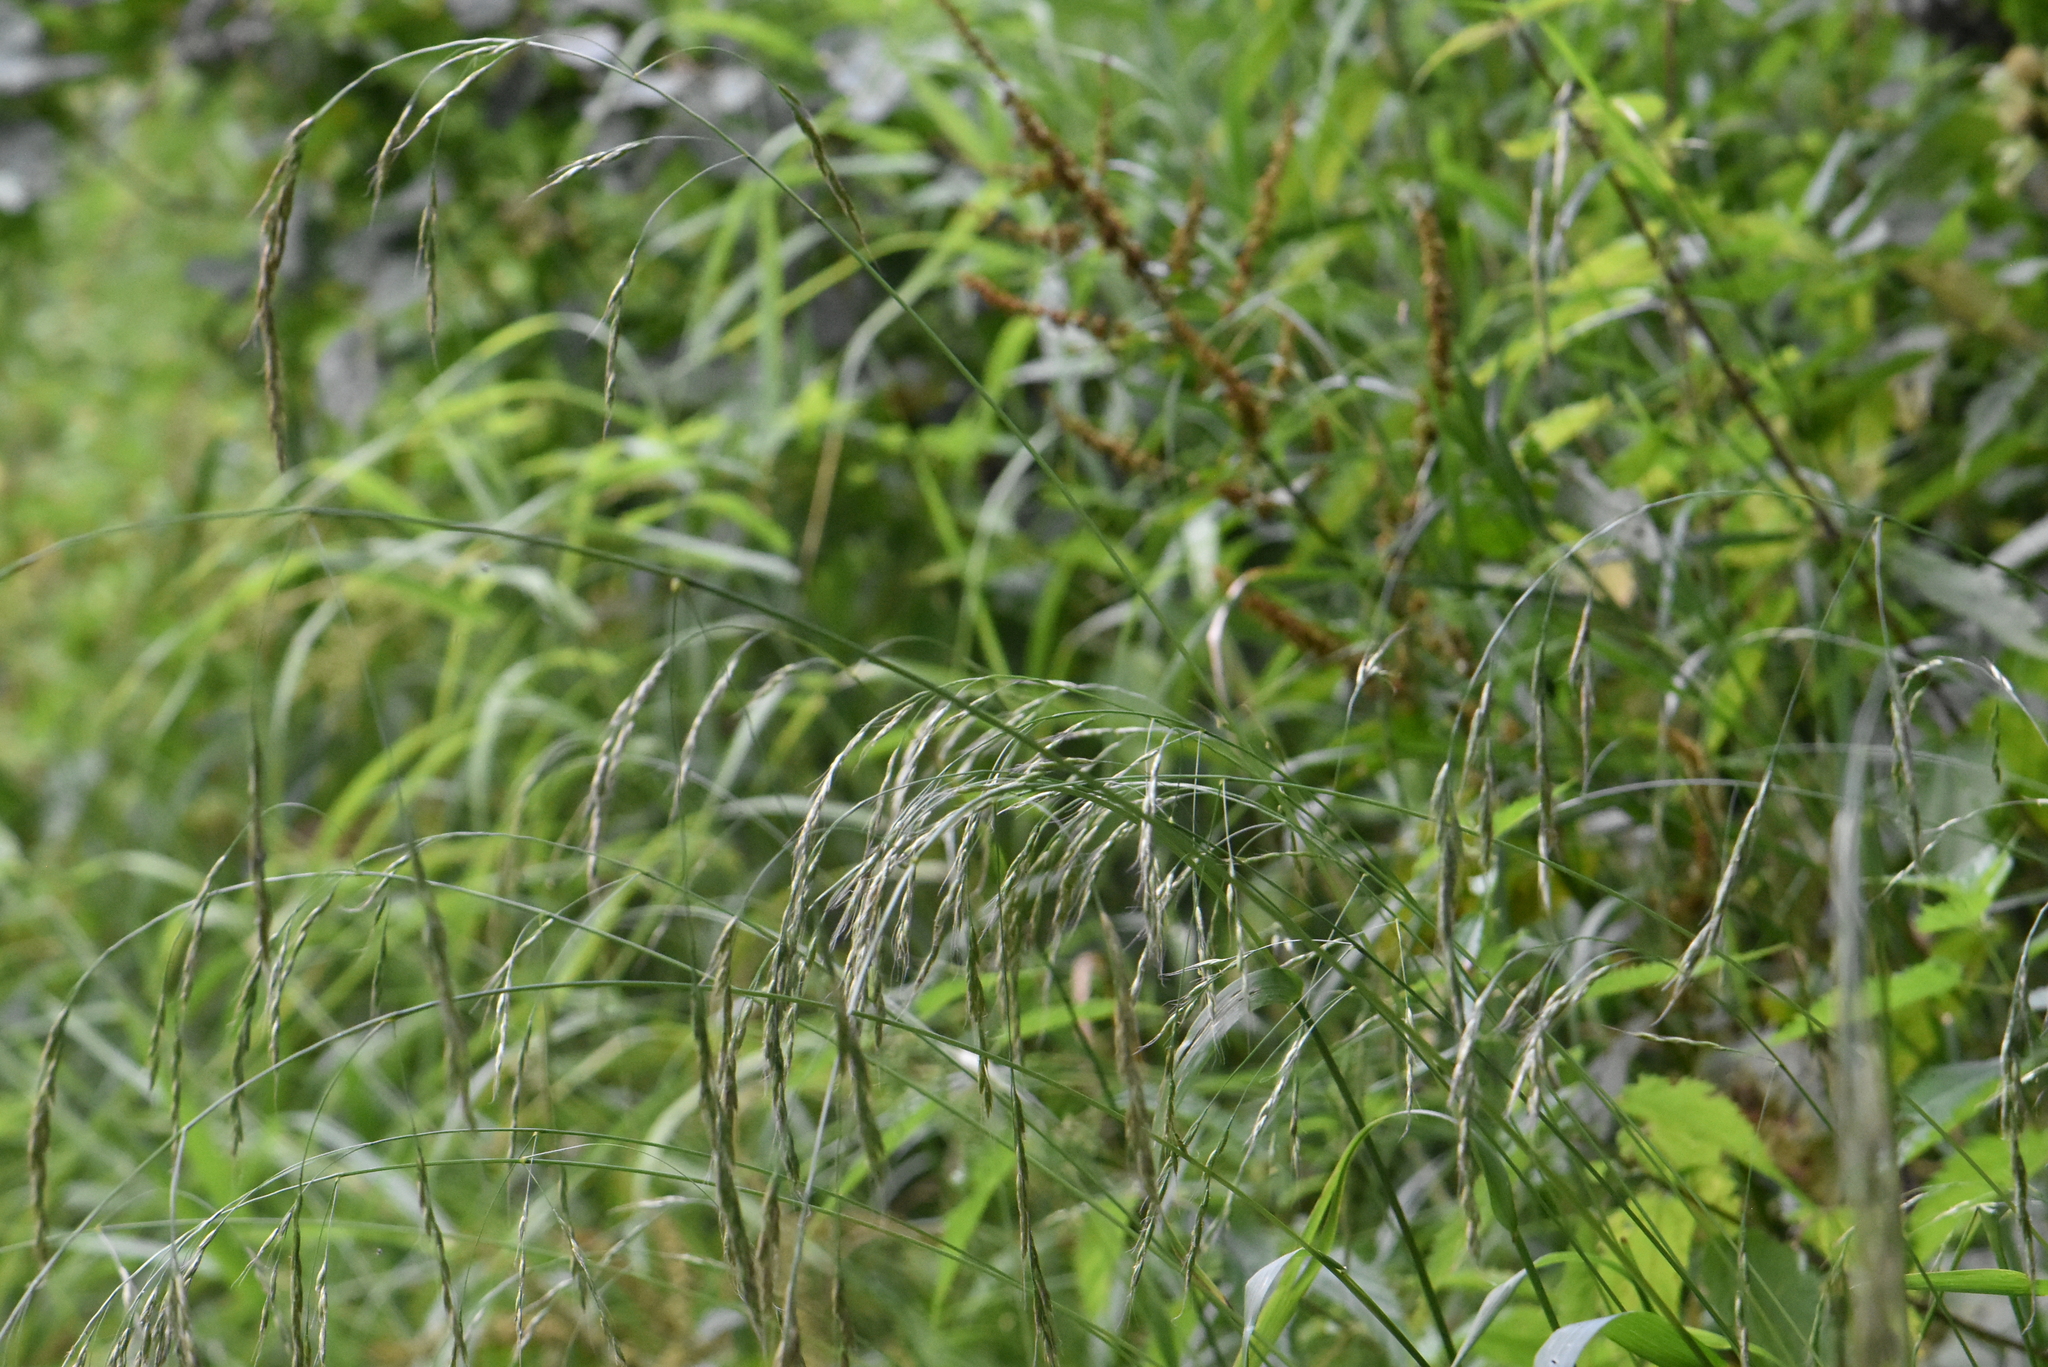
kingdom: Plantae
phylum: Tracheophyta
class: Liliopsida
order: Poales
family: Poaceae
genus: Lolium
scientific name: Lolium giganteum
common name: Giant fescue
